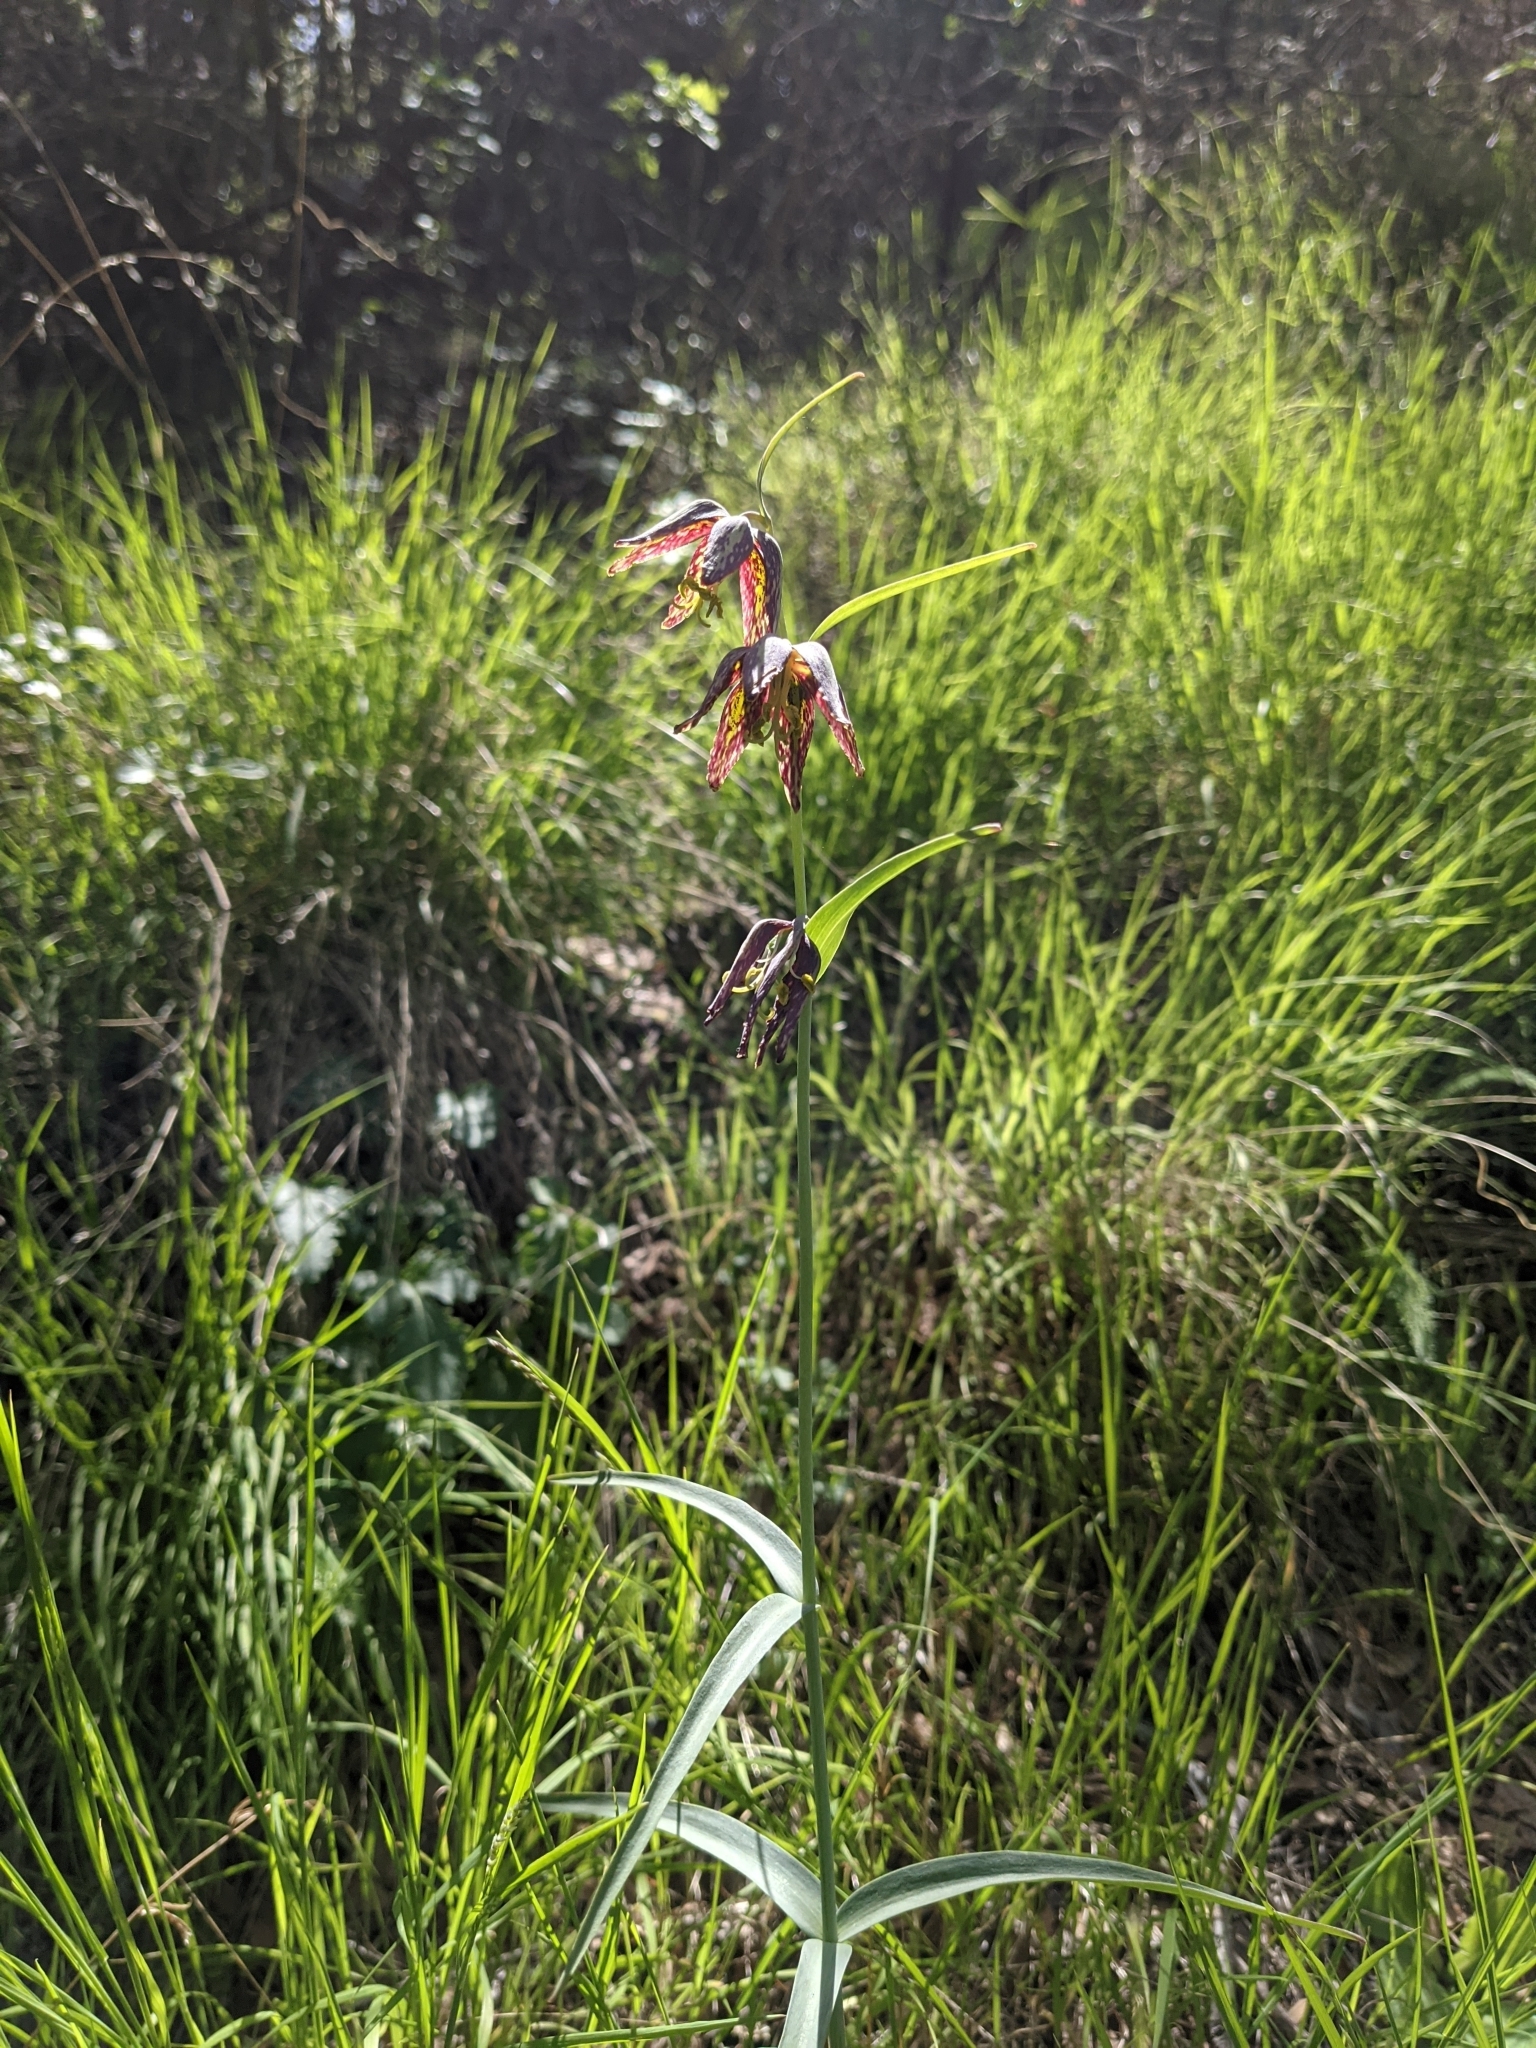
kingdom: Plantae
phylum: Tracheophyta
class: Liliopsida
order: Liliales
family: Liliaceae
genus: Fritillaria
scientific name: Fritillaria affinis
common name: Ojai fritillary
